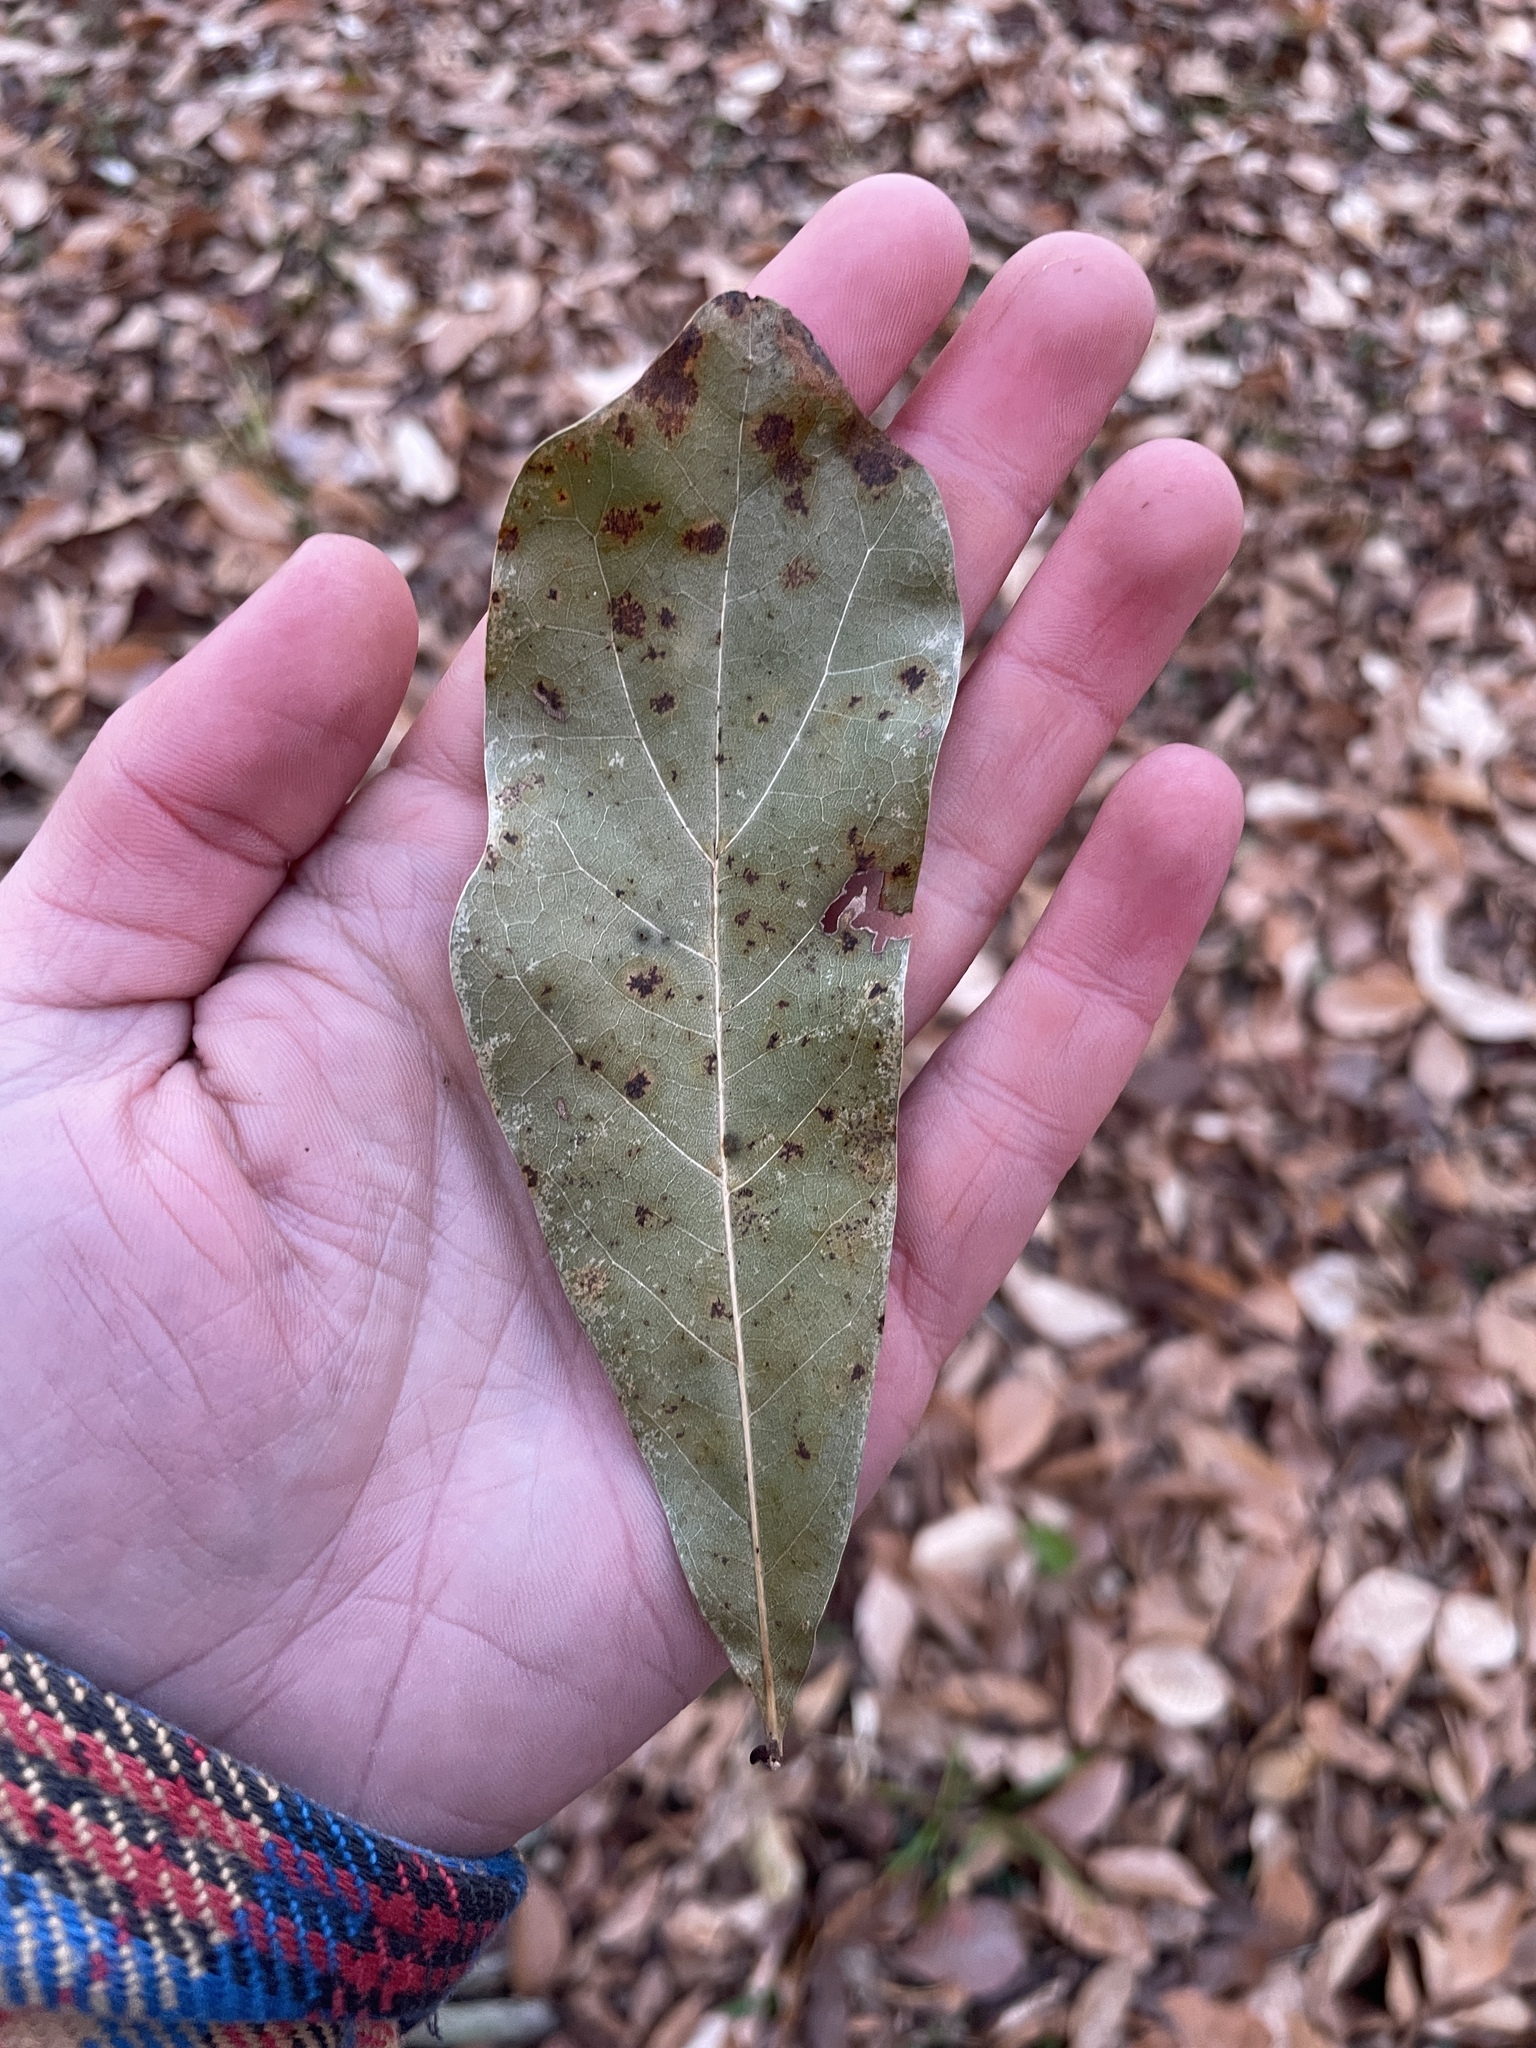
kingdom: Plantae
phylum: Tracheophyta
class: Magnoliopsida
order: Fagales
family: Fagaceae
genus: Quercus
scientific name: Quercus nigra
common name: Water oak
